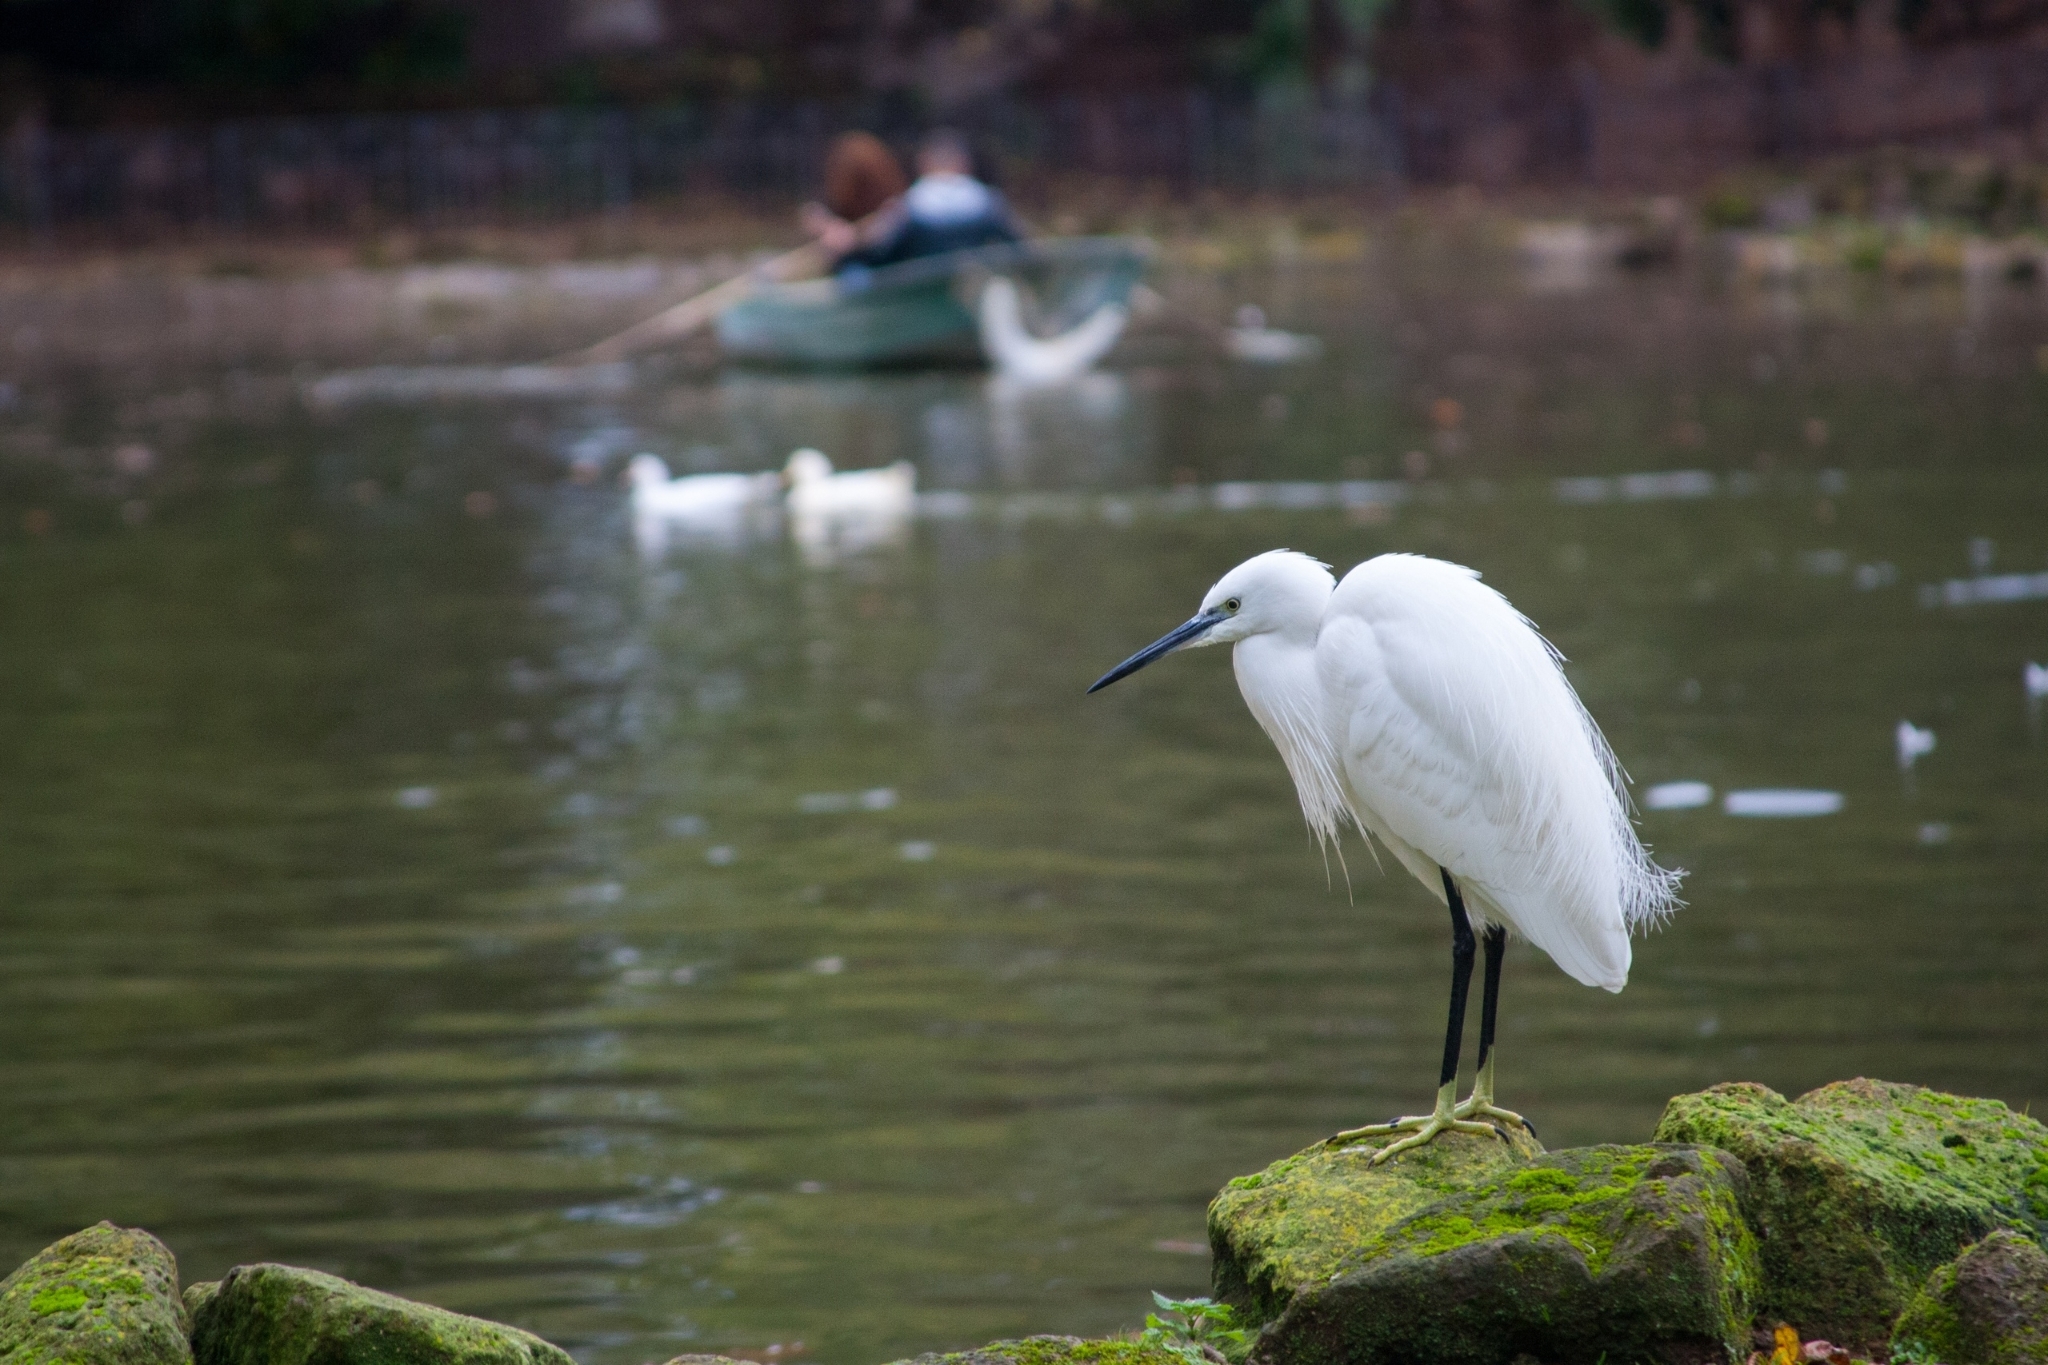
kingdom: Animalia
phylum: Chordata
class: Aves
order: Pelecaniformes
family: Ardeidae
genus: Egretta
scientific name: Egretta garzetta
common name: Little egret
